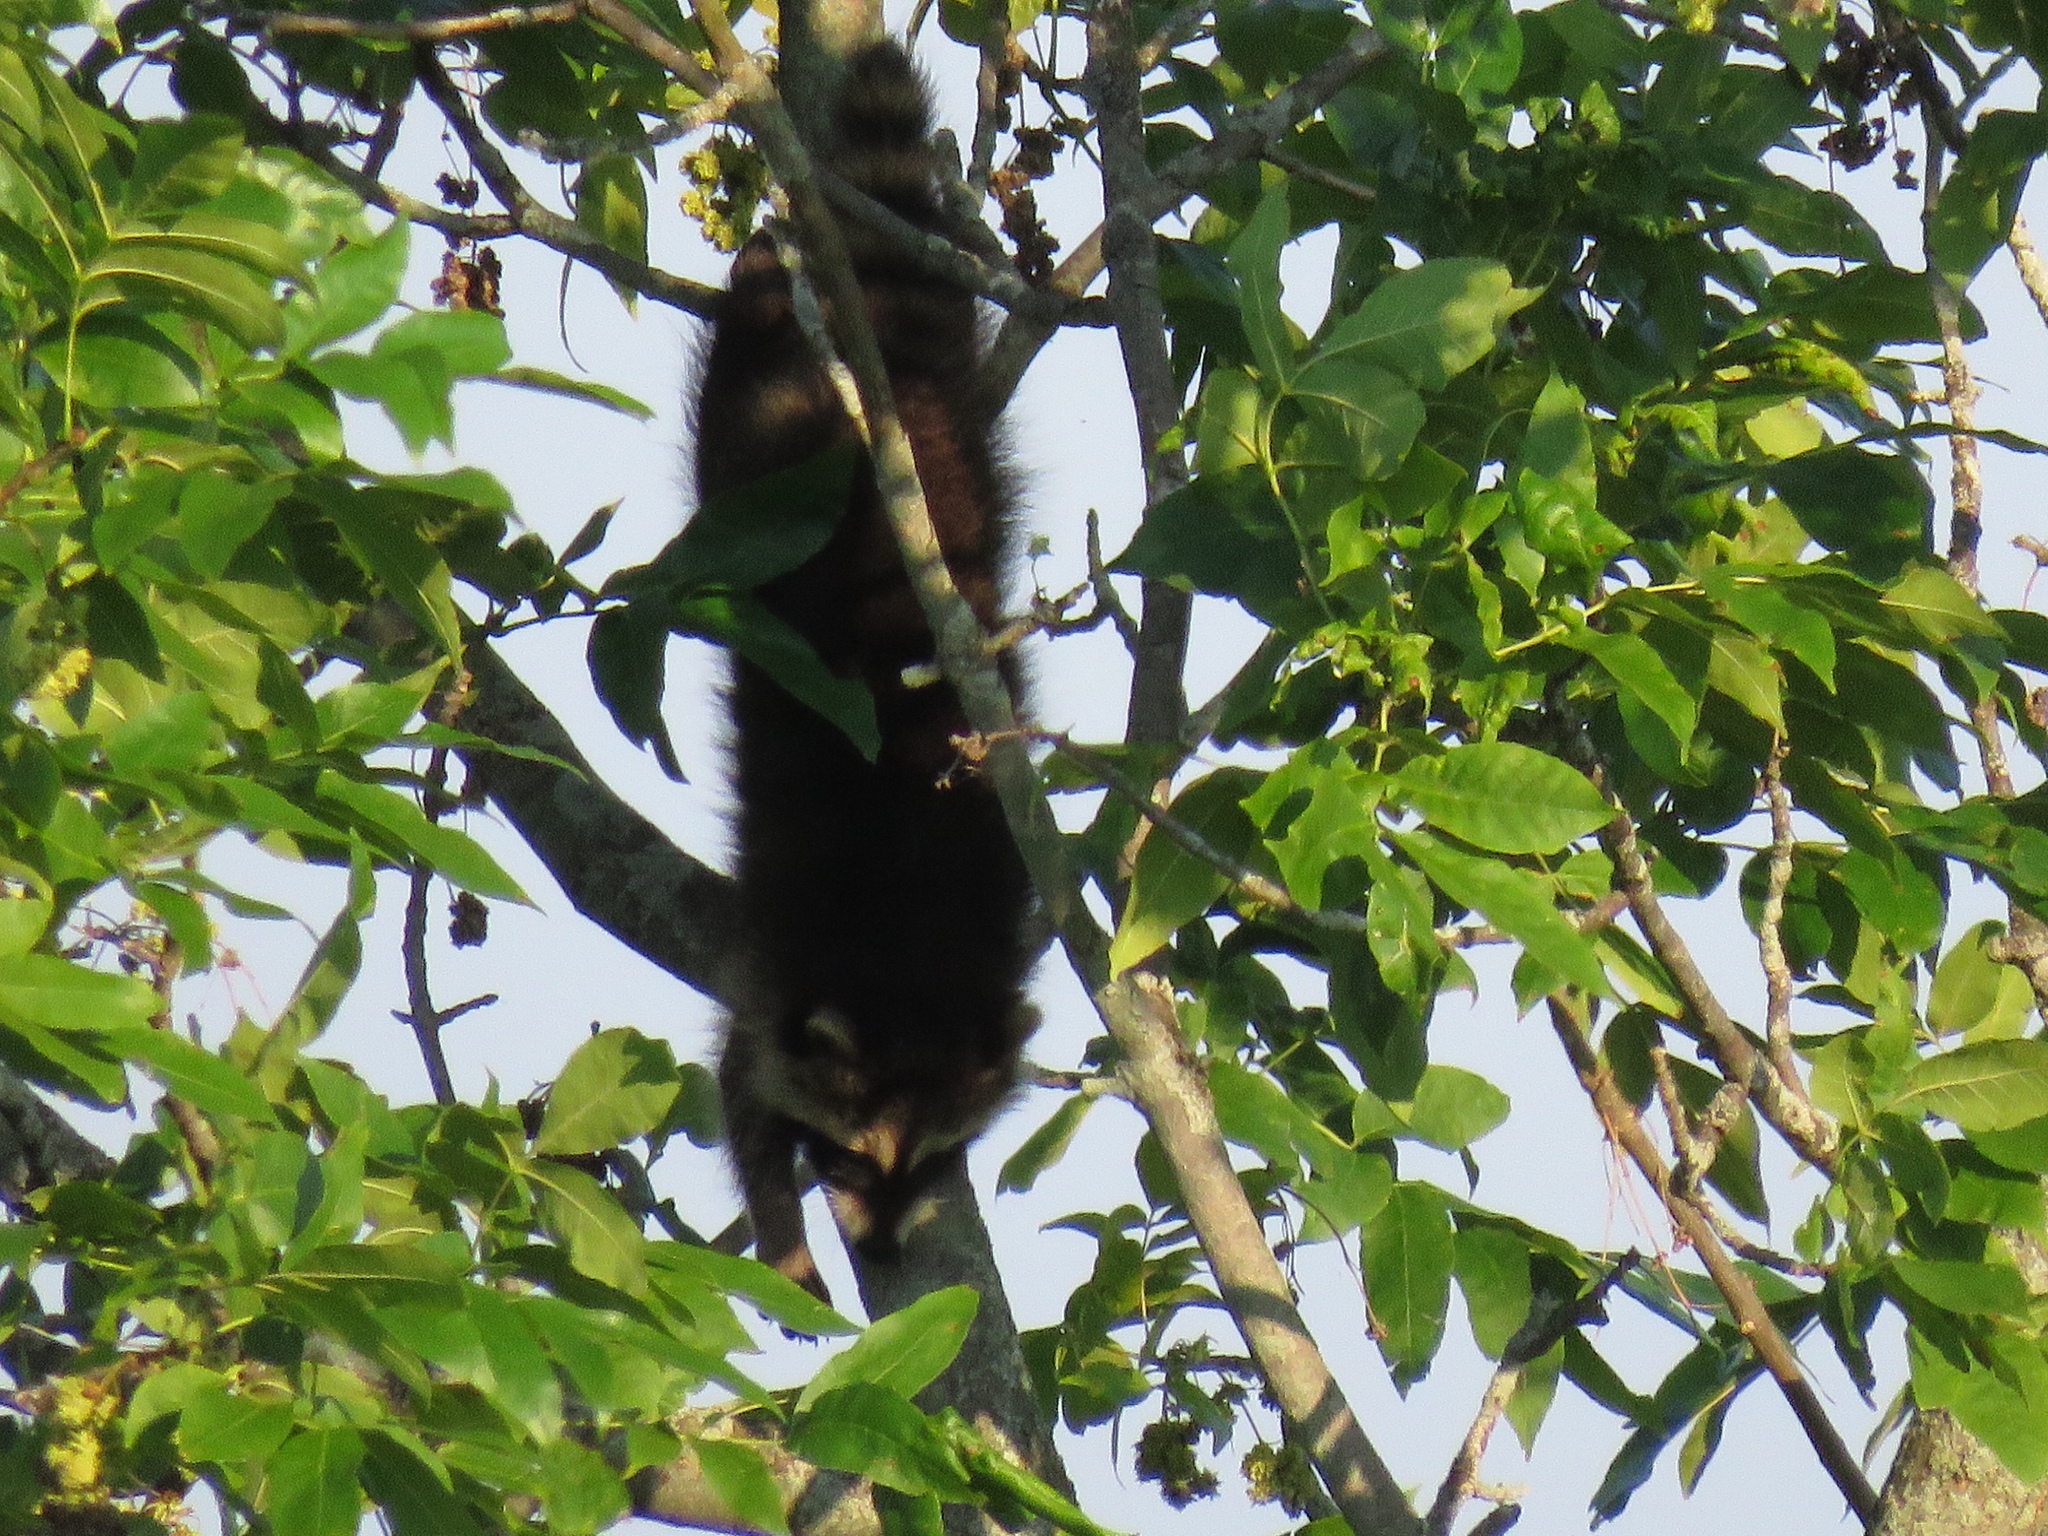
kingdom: Animalia
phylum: Chordata
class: Mammalia
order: Carnivora
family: Procyonidae
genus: Procyon
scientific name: Procyon lotor
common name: Raccoon
